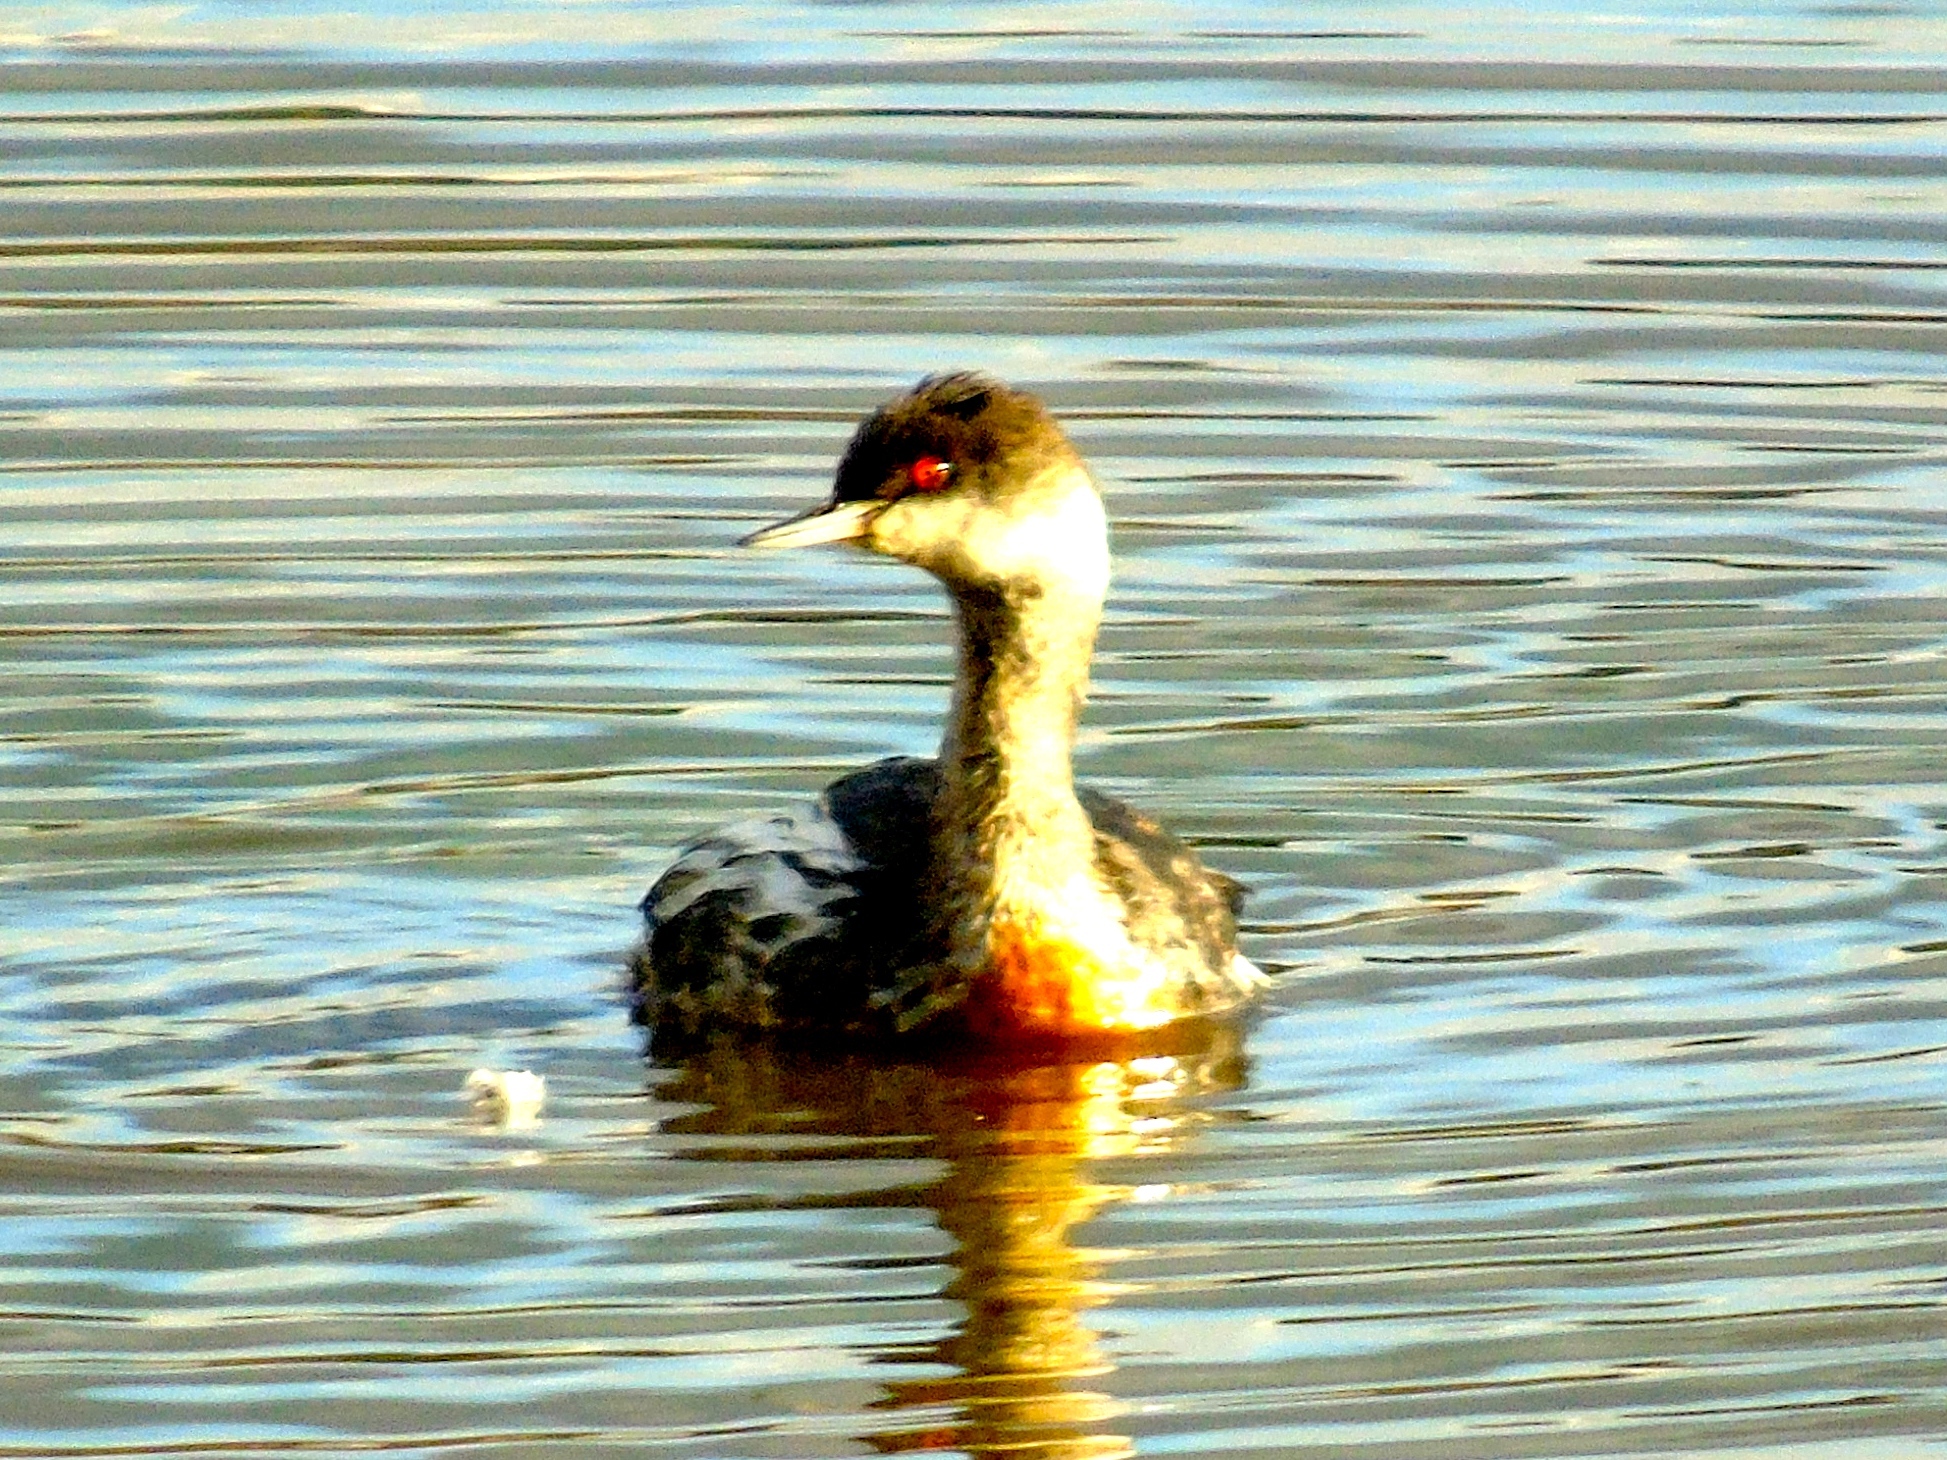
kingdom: Animalia
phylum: Chordata
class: Aves
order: Podicipediformes
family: Podicipedidae
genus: Podiceps
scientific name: Podiceps nigricollis
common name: Black-necked grebe
